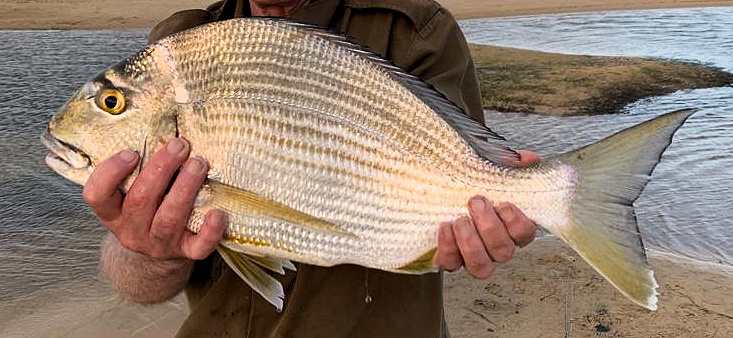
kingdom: Animalia
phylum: Chordata
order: Perciformes
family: Sparidae
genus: Rhabdosargus
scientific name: Rhabdosargus sarba
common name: Goldlined seabream
